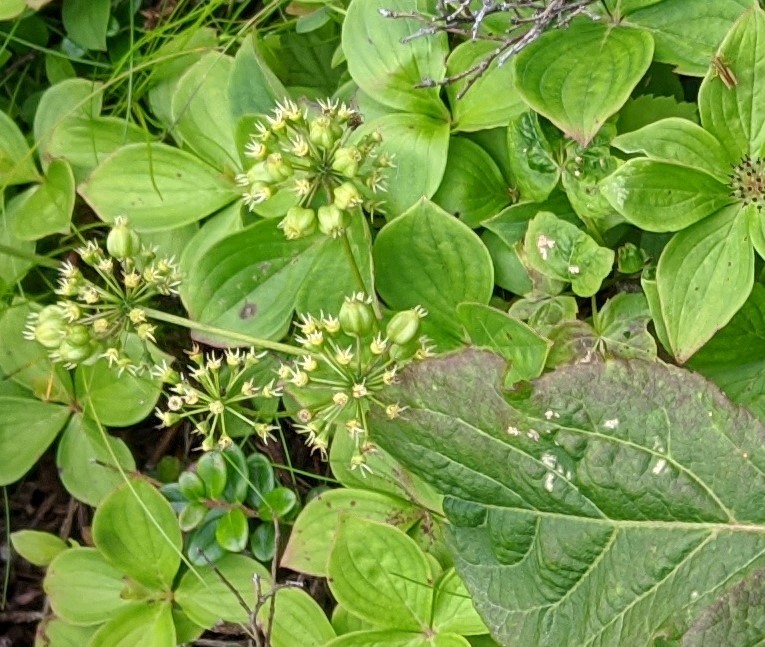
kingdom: Plantae
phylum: Tracheophyta
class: Magnoliopsida
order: Apiales
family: Araliaceae
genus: Aralia
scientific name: Aralia nudicaulis
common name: Wild sarsaparilla
